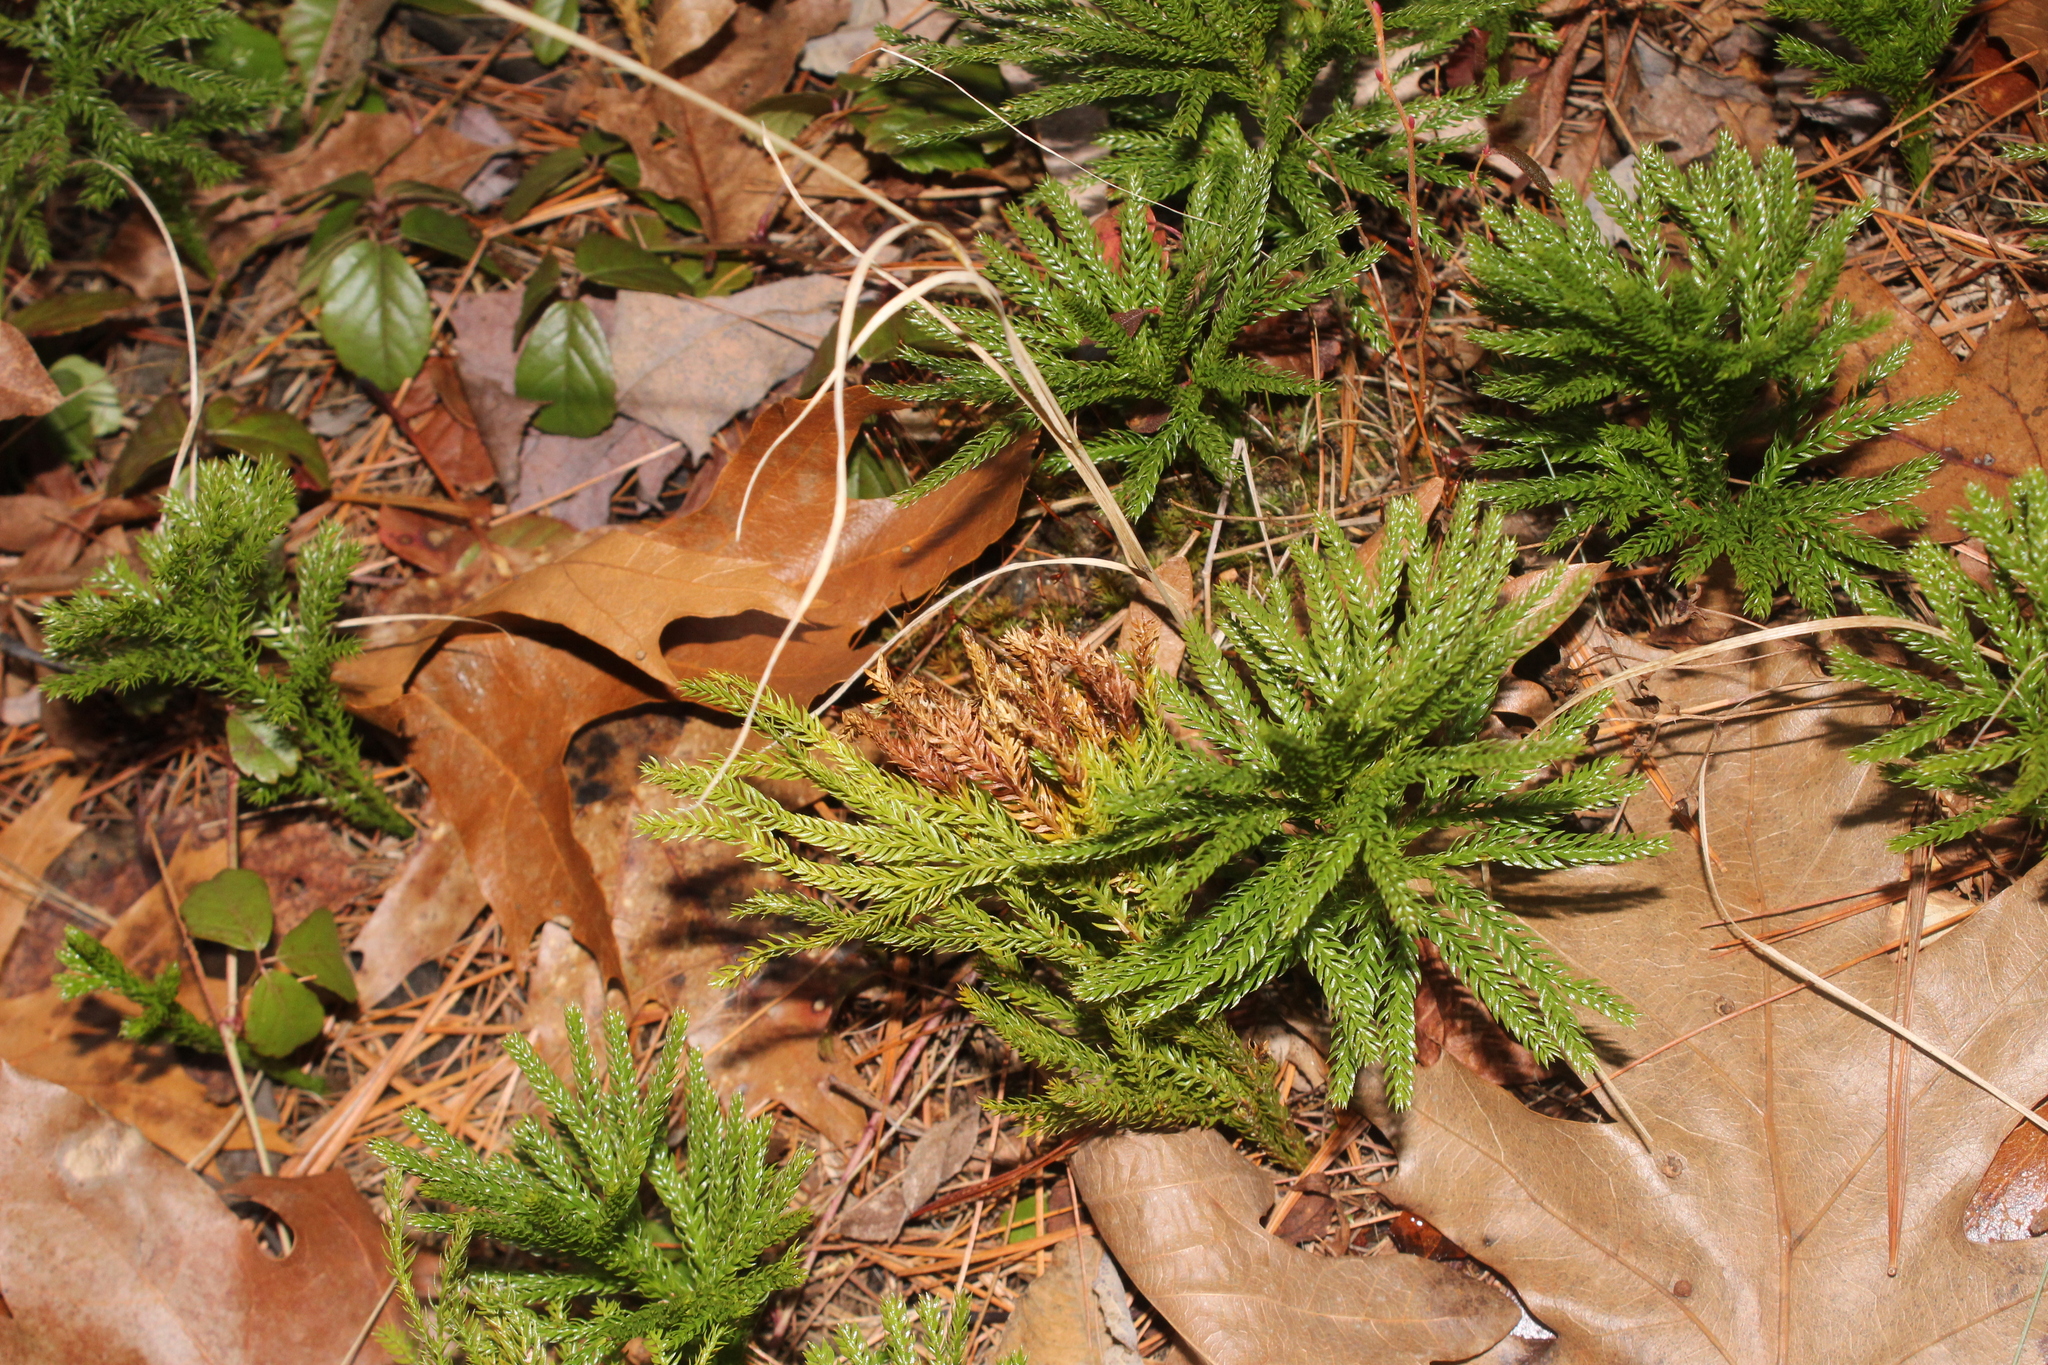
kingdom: Plantae
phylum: Tracheophyta
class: Lycopodiopsida
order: Lycopodiales
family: Lycopodiaceae
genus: Dendrolycopodium
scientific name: Dendrolycopodium hickeyi
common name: Hickey's clubmoss
